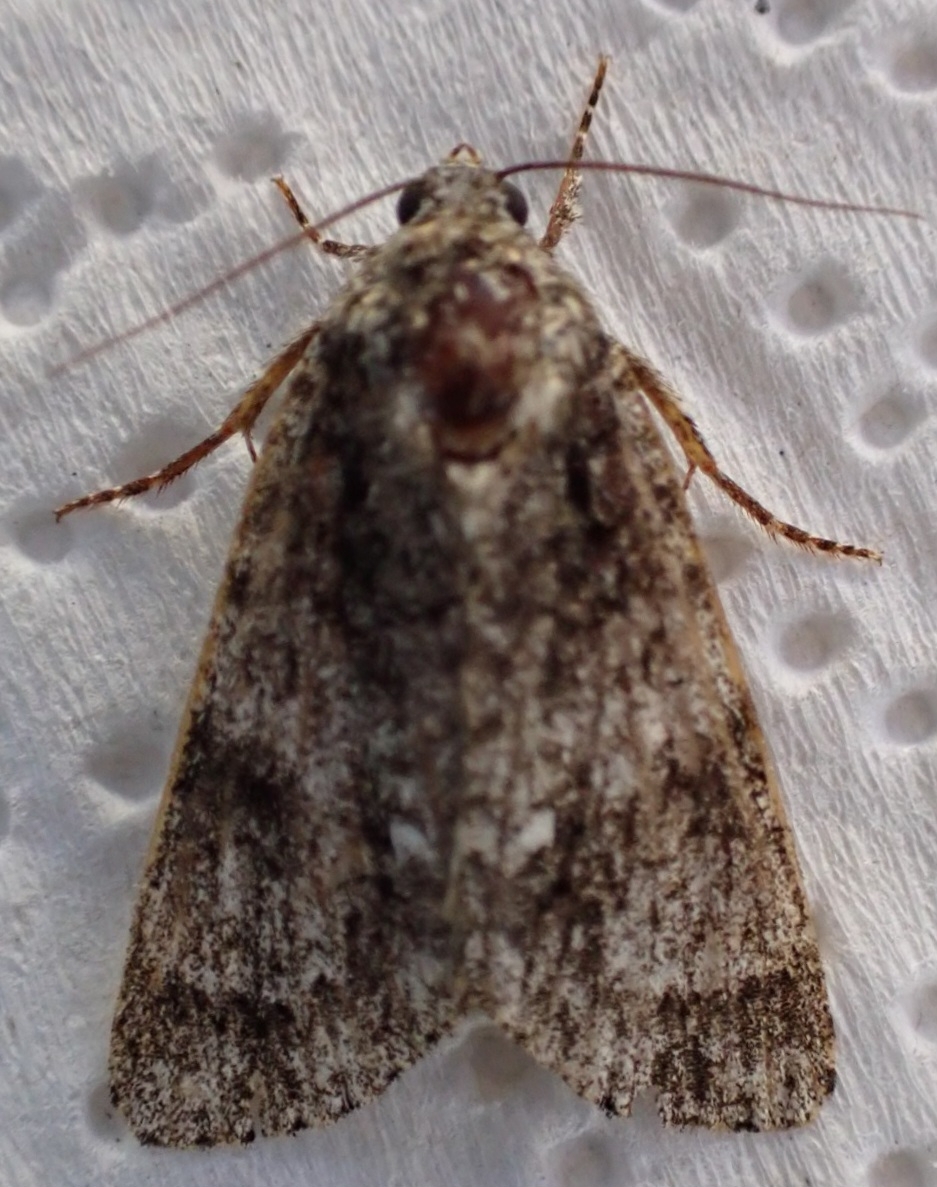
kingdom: Animalia
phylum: Arthropoda
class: Insecta
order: Lepidoptera
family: Noctuidae
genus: Acronicta
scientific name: Acronicta rumicis
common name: Knot grass
